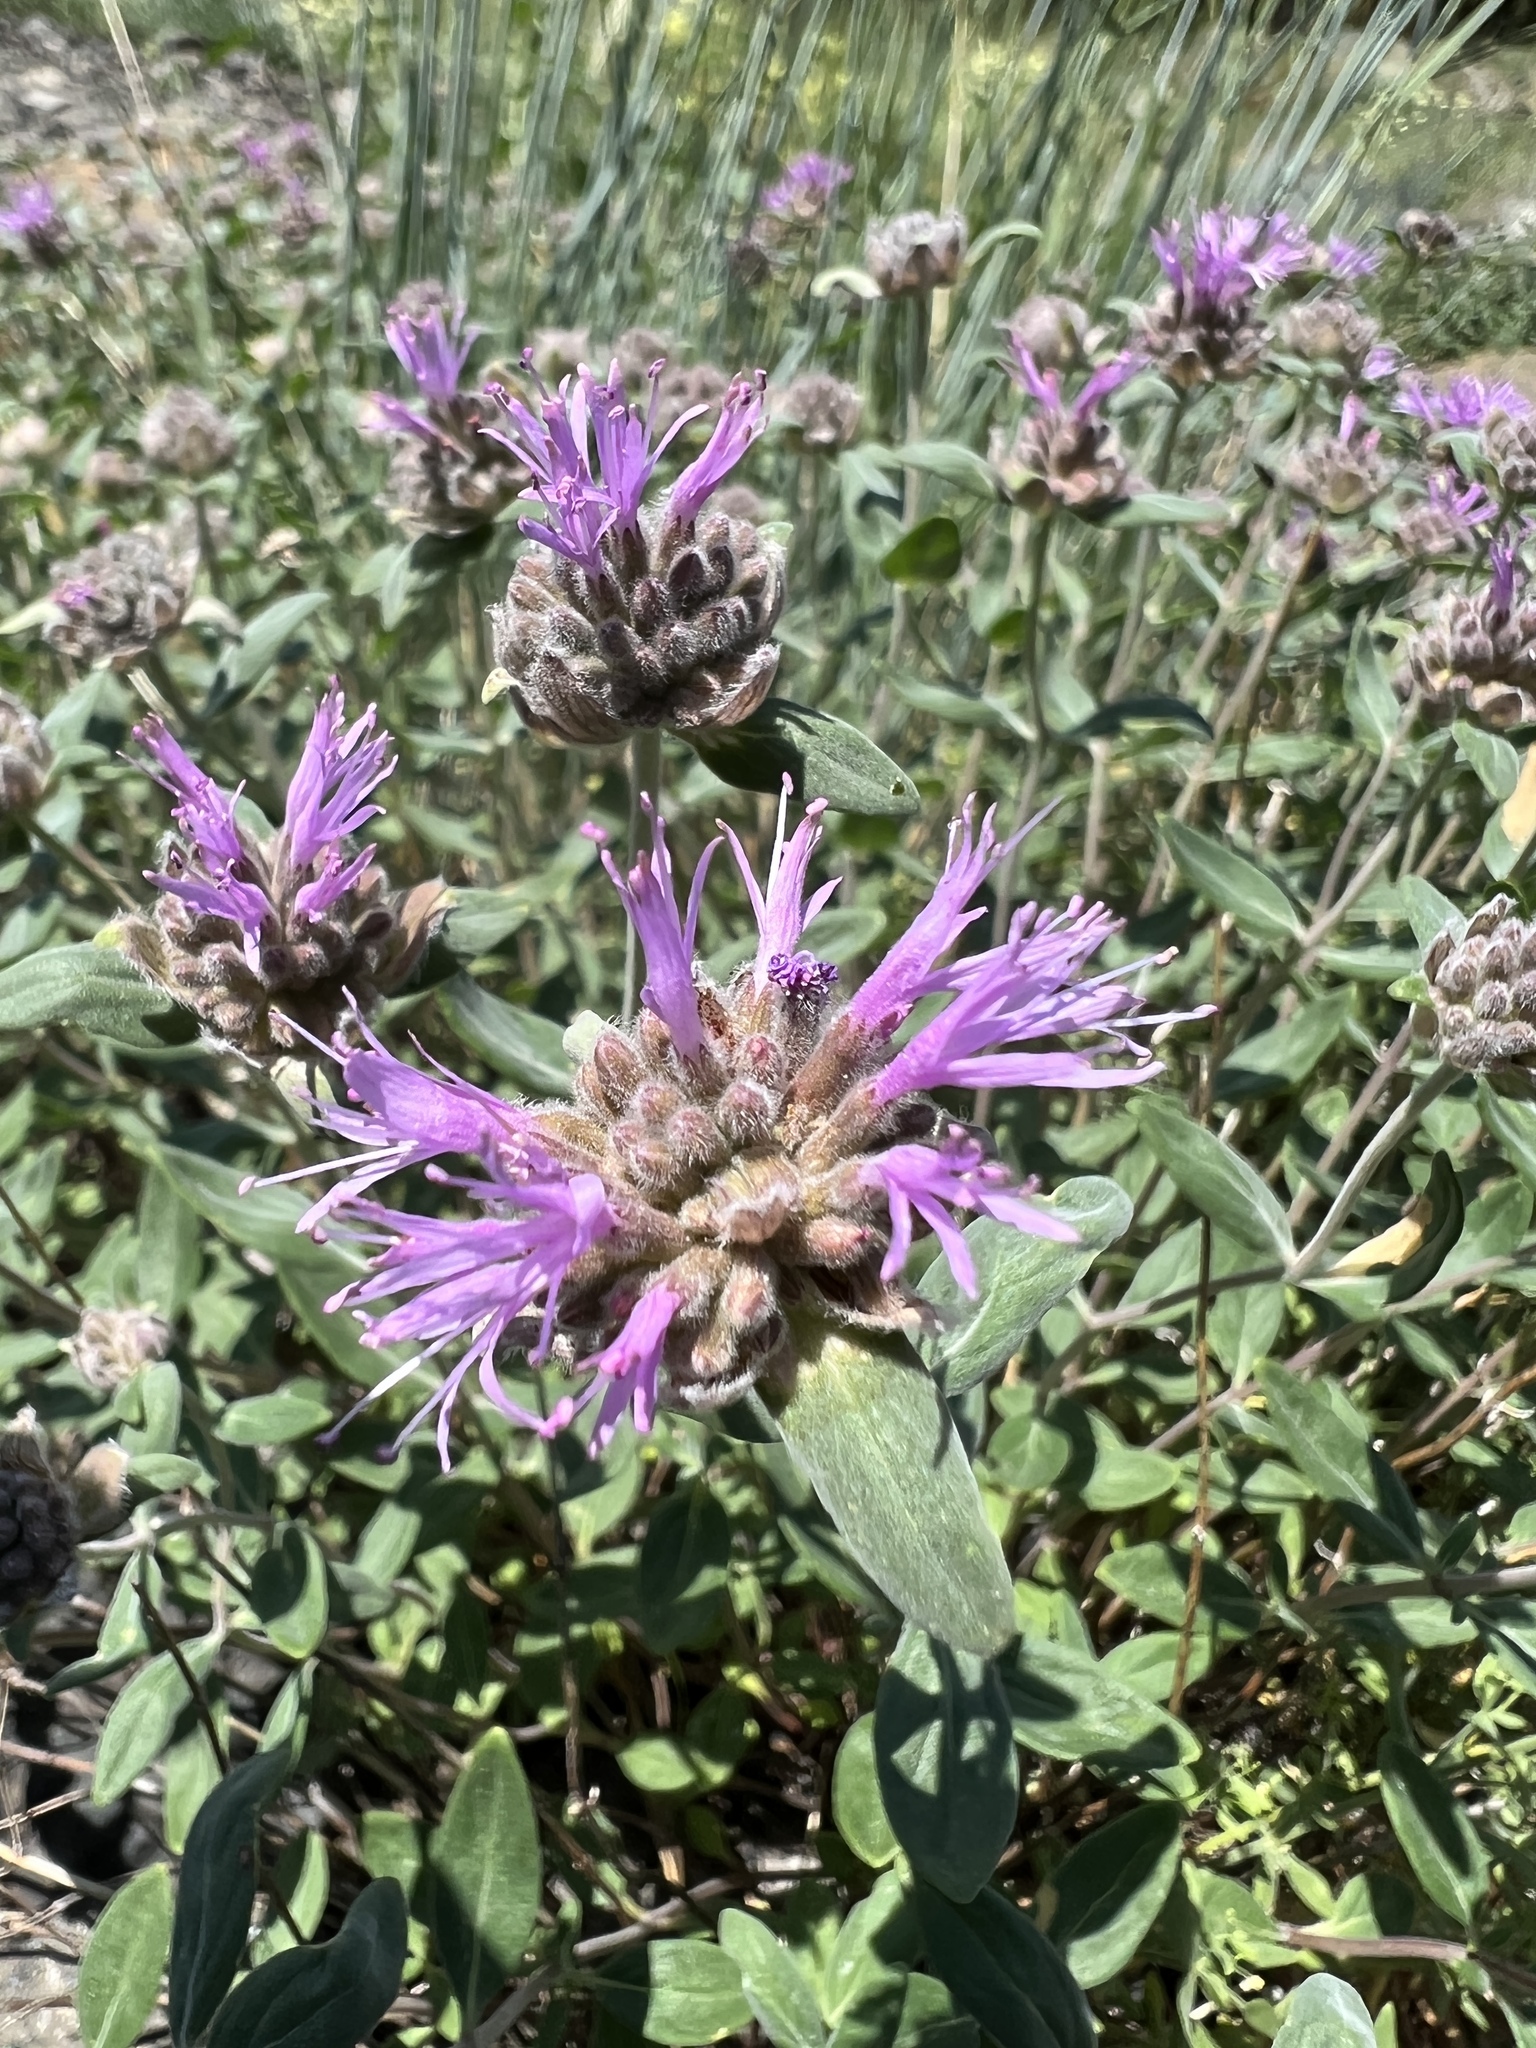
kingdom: Plantae
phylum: Tracheophyta
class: Magnoliopsida
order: Lamiales
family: Lamiaceae
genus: Monardella
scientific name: Monardella odoratissima
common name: Pacific monardella
